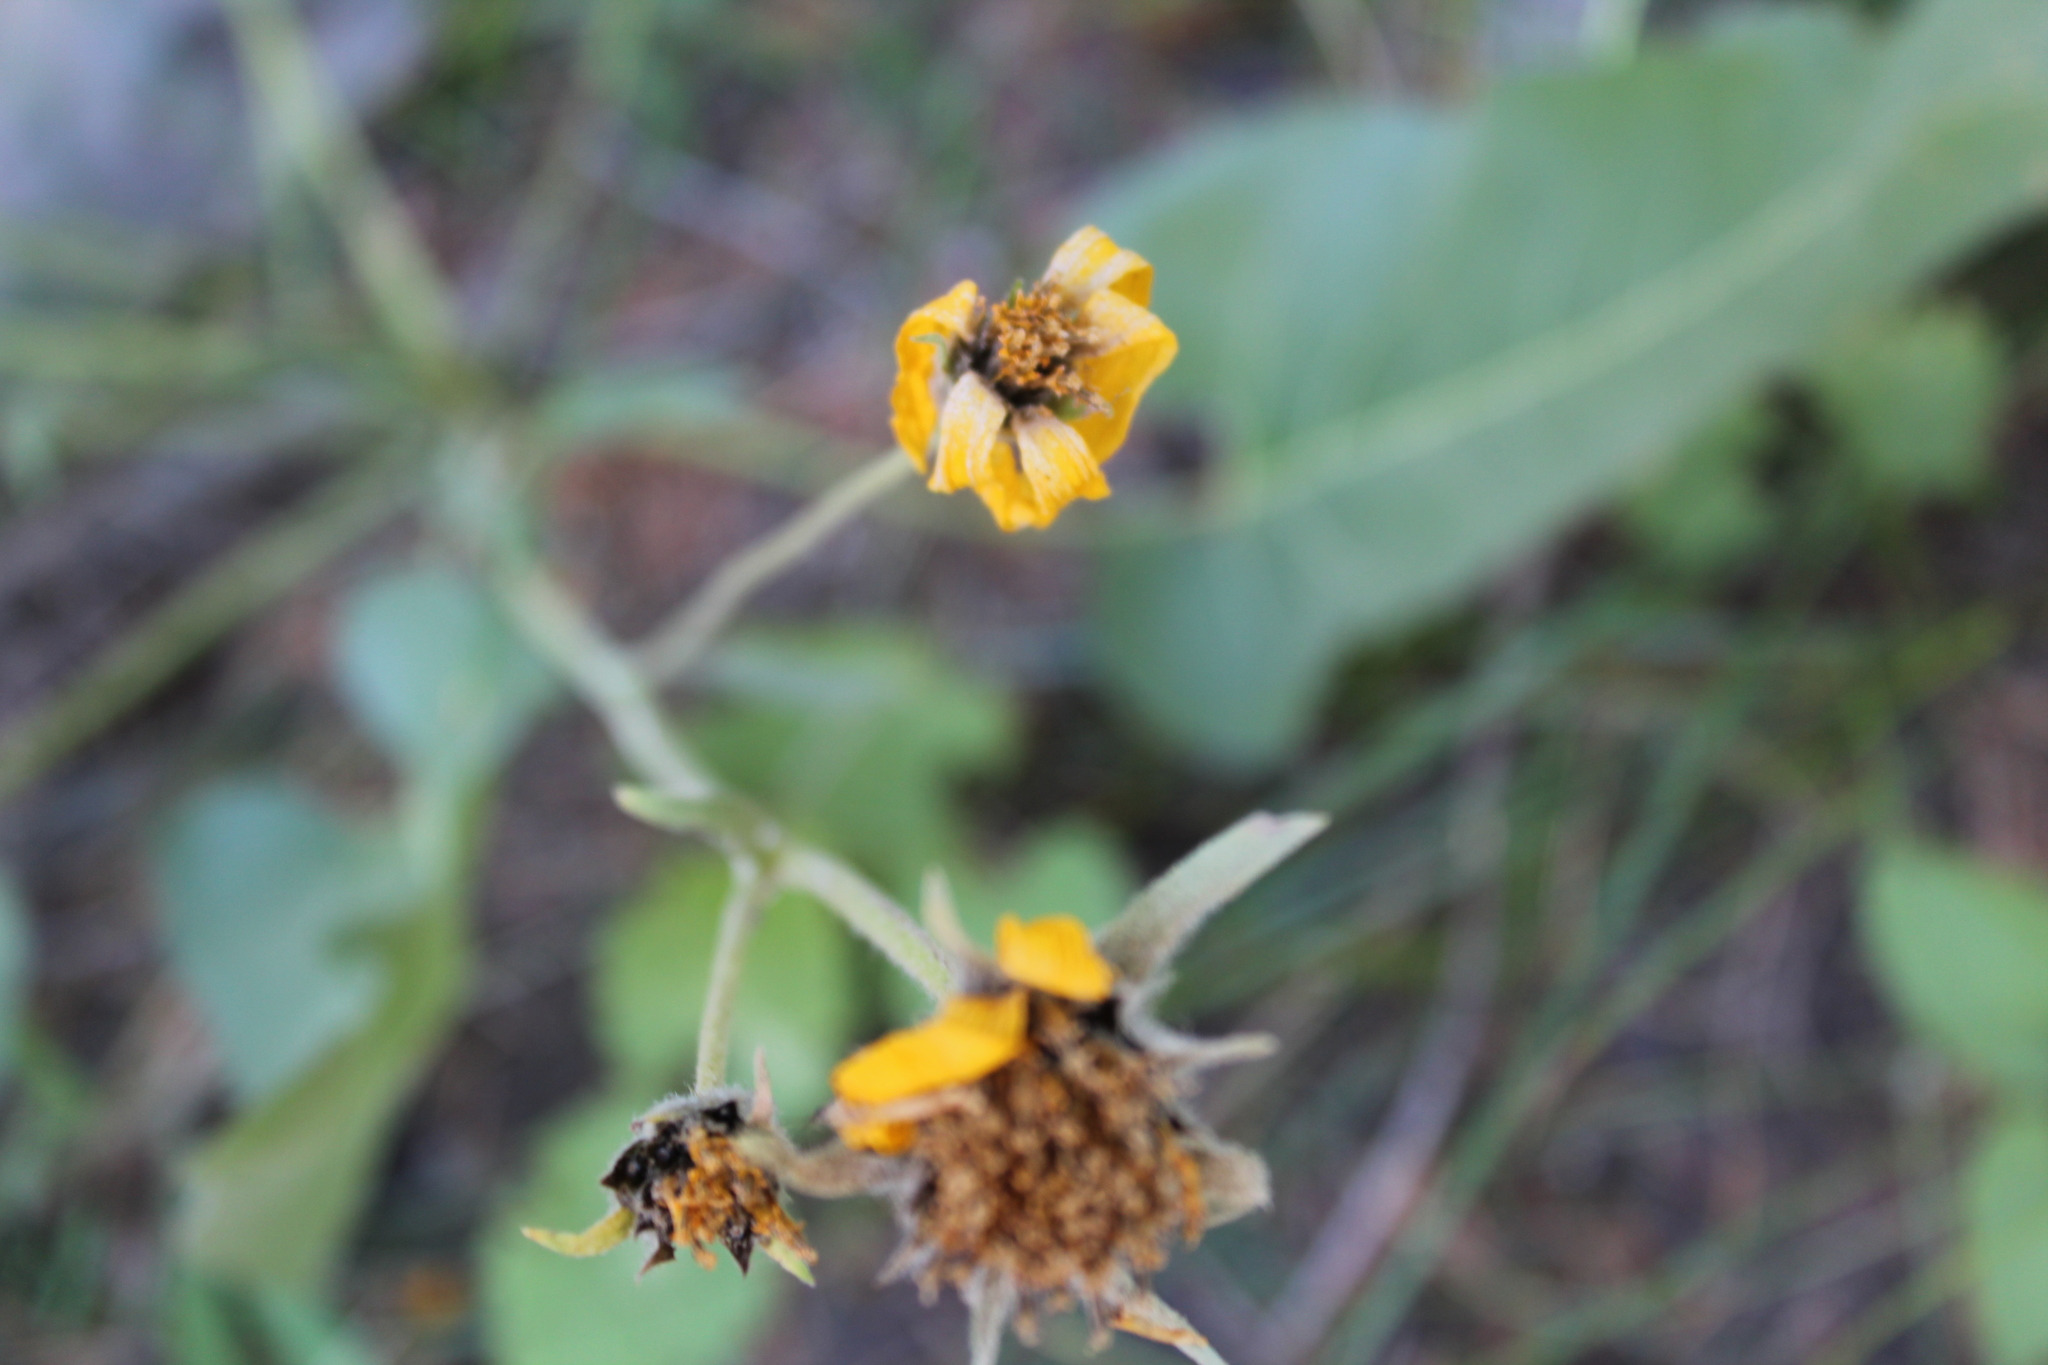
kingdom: Plantae
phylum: Tracheophyta
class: Magnoliopsida
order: Asterales
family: Asteraceae
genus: Wyethia
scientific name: Wyethia sagittata
